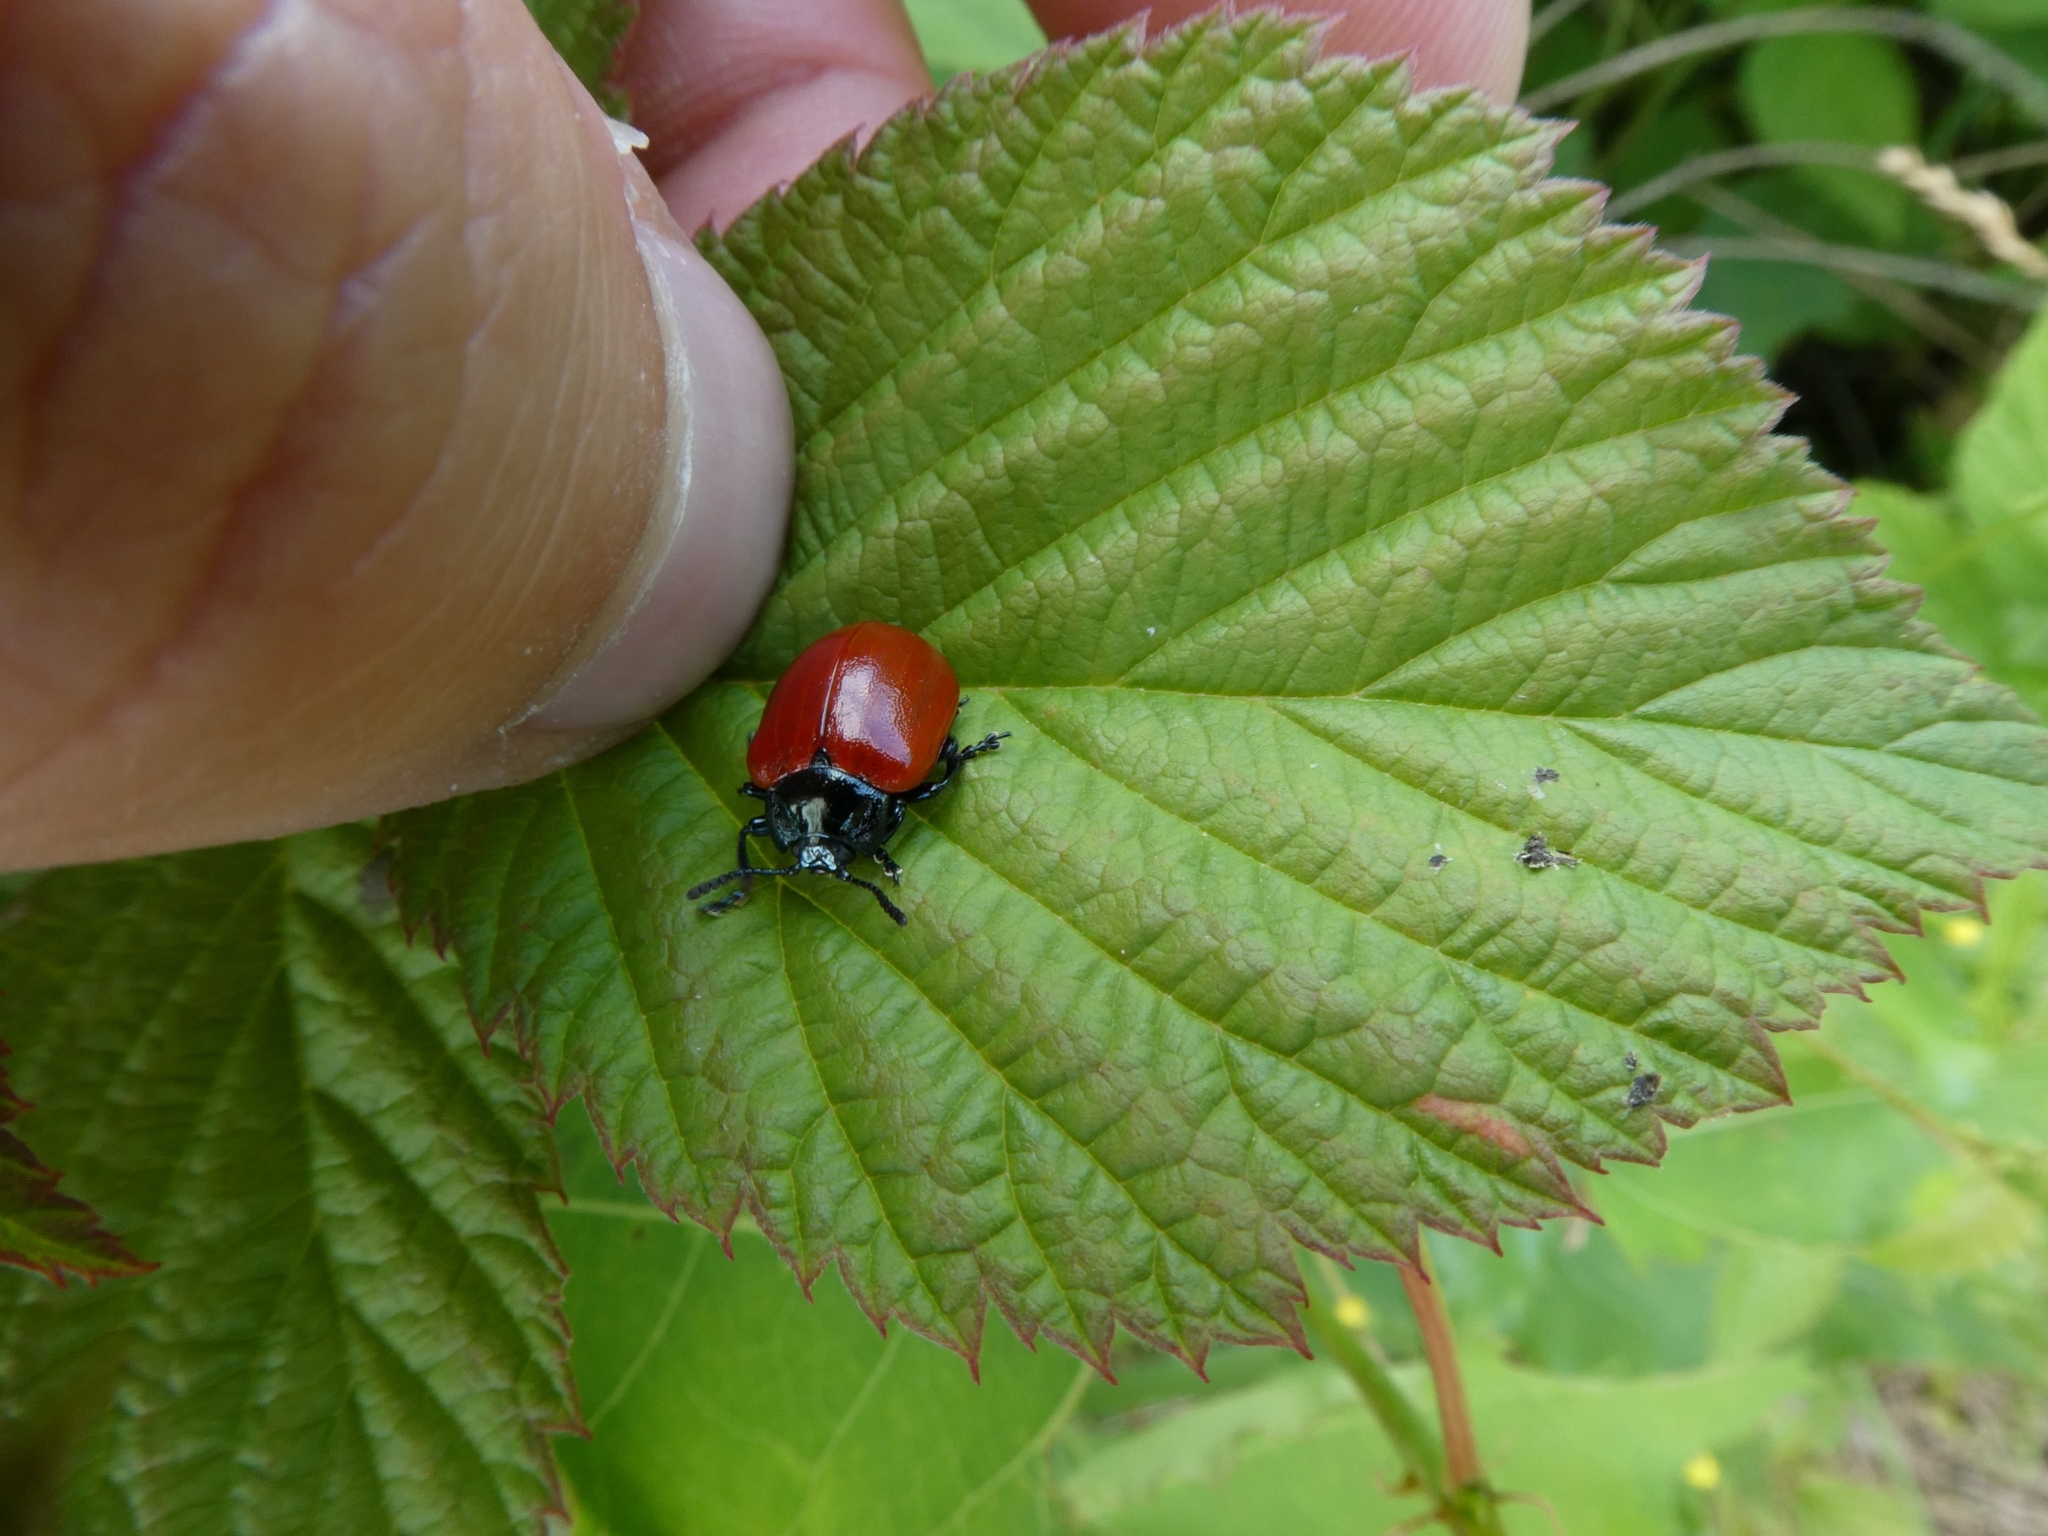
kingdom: Animalia
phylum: Arthropoda
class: Insecta
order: Coleoptera
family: Chrysomelidae
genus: Chrysomela
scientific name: Chrysomela populi
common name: Red poplar leaf beetle
